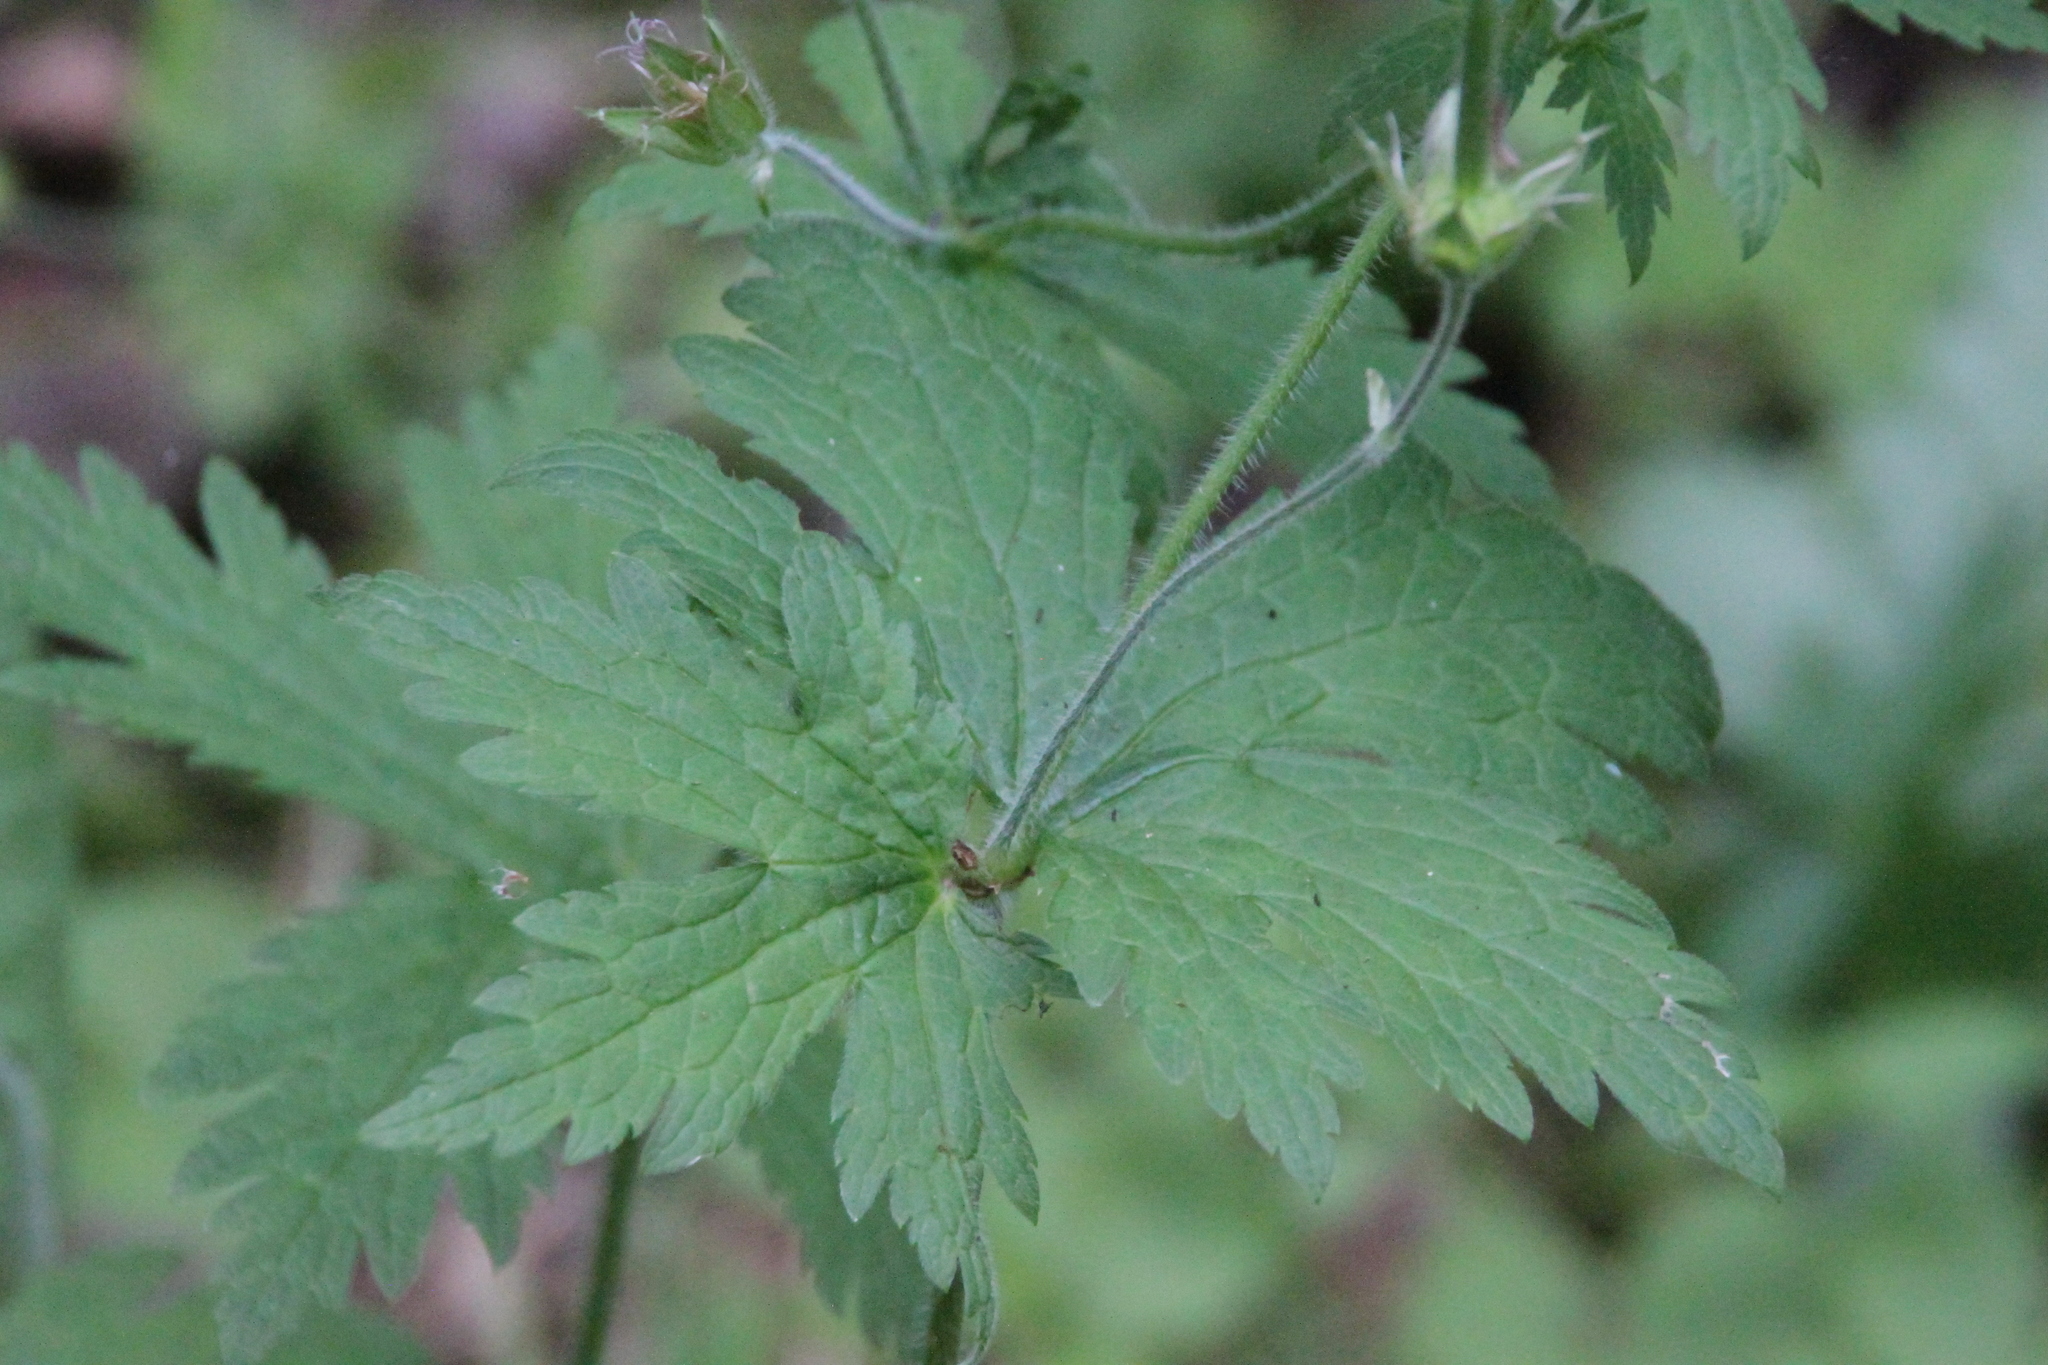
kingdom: Plantae
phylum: Tracheophyta
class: Magnoliopsida
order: Geraniales
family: Geraniaceae
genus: Geranium
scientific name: Geranium sylvaticum
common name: Wood crane's-bill
